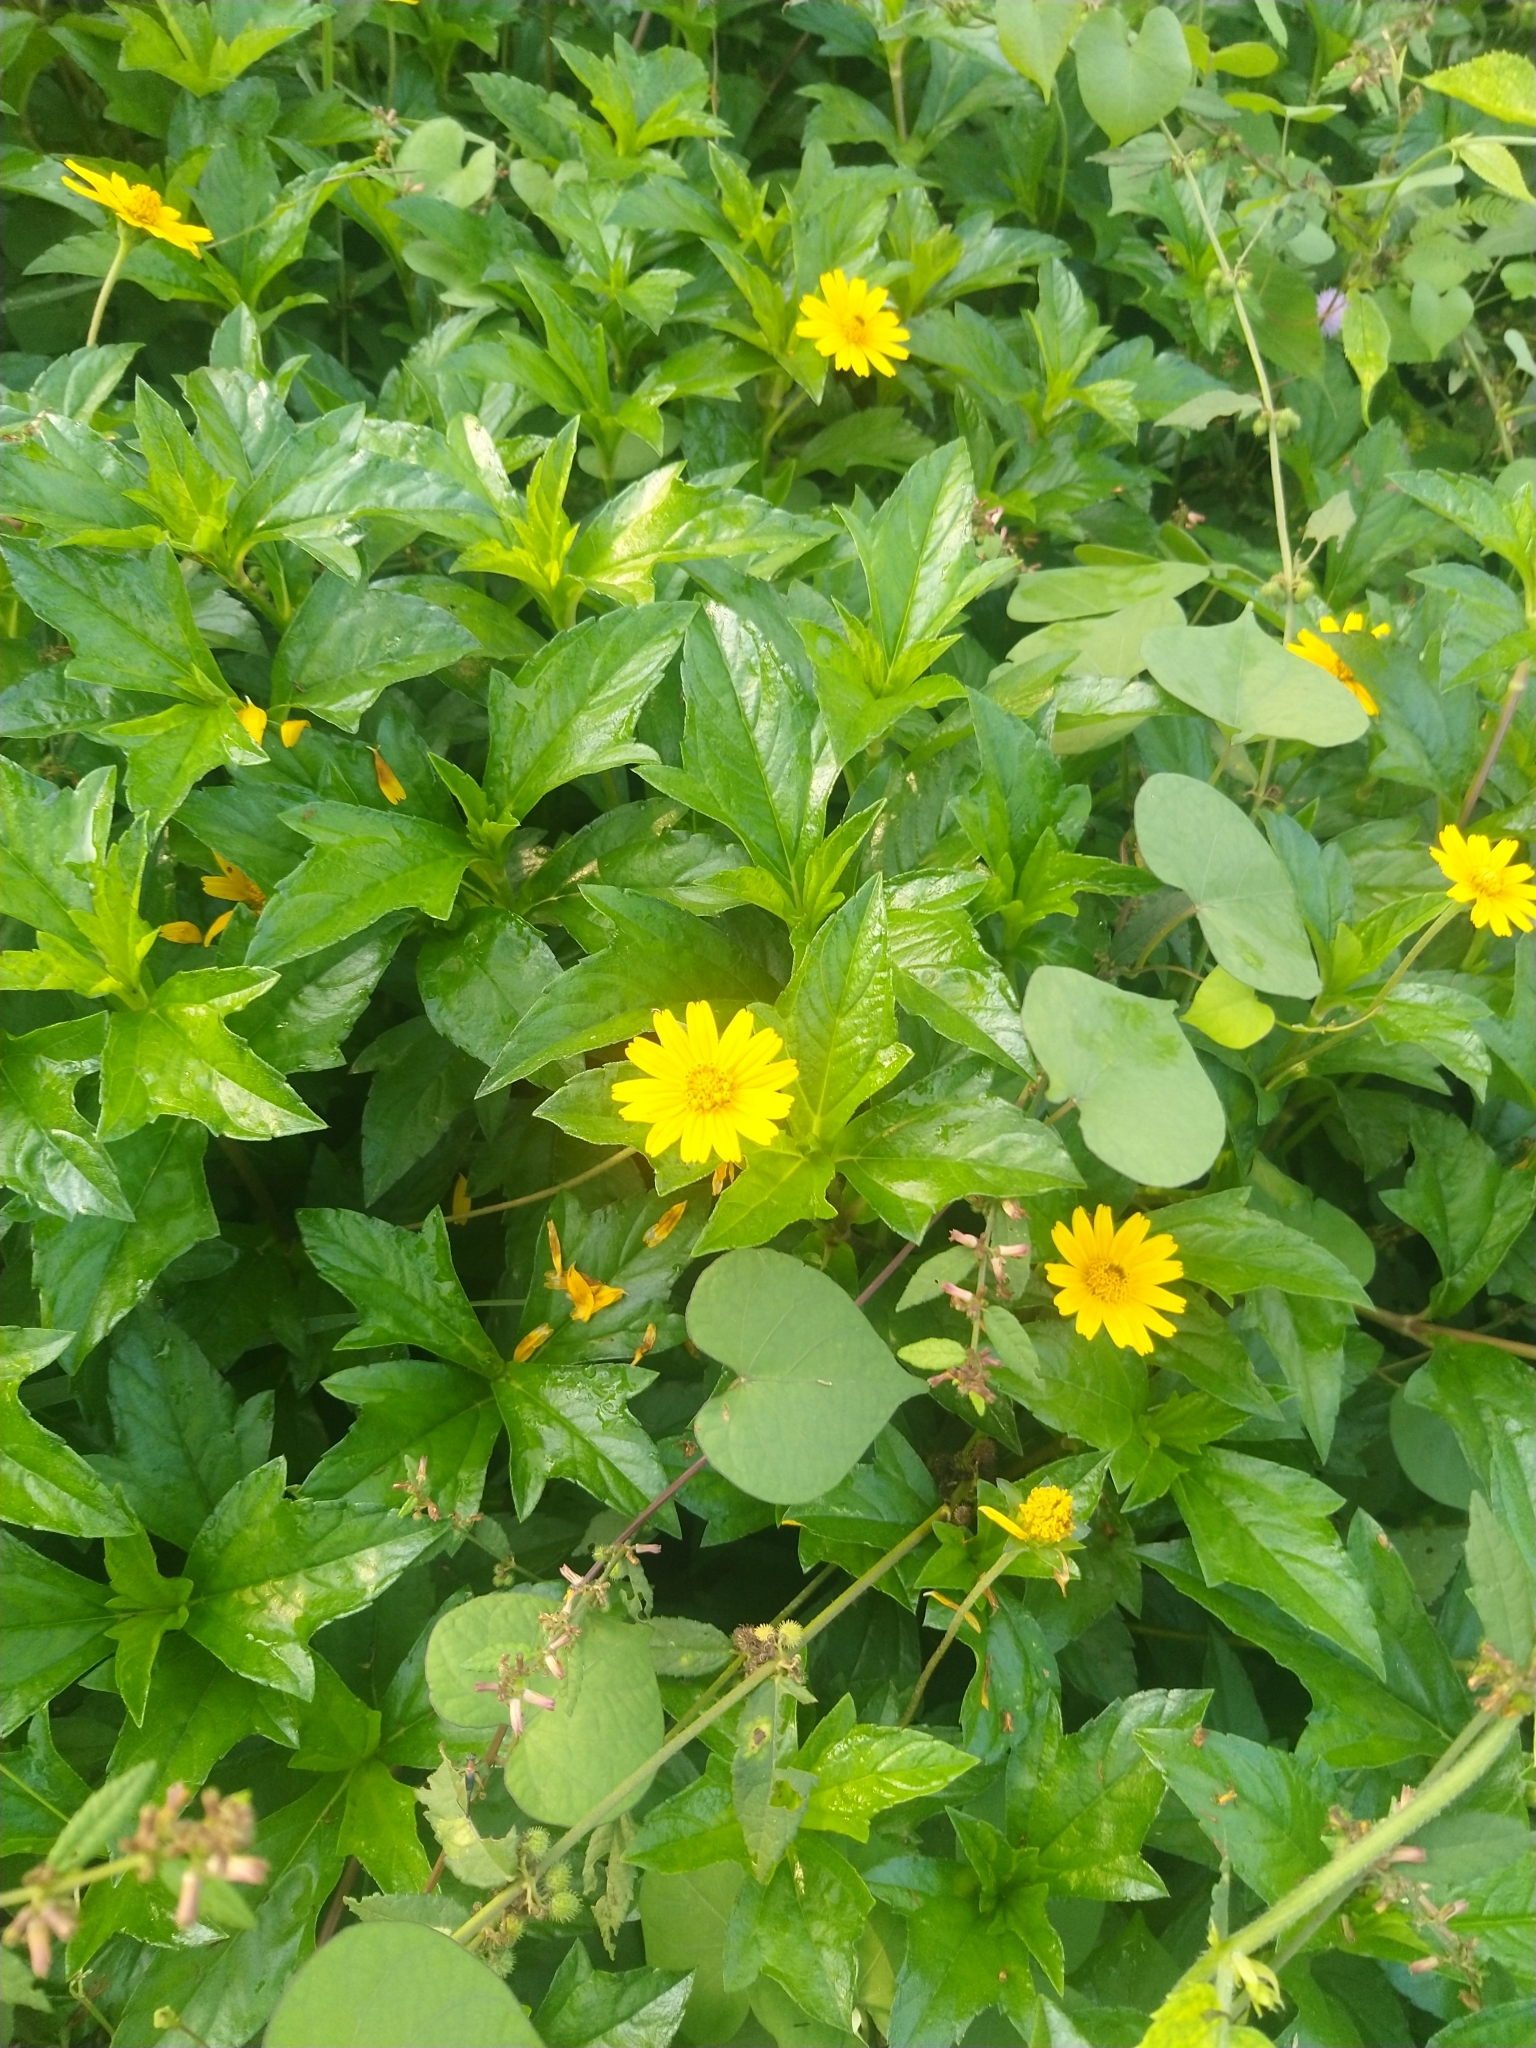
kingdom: Plantae
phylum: Tracheophyta
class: Magnoliopsida
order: Asterales
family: Asteraceae
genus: Sphagneticola
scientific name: Sphagneticola trilobata
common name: Bay biscayne creeping-oxeye
